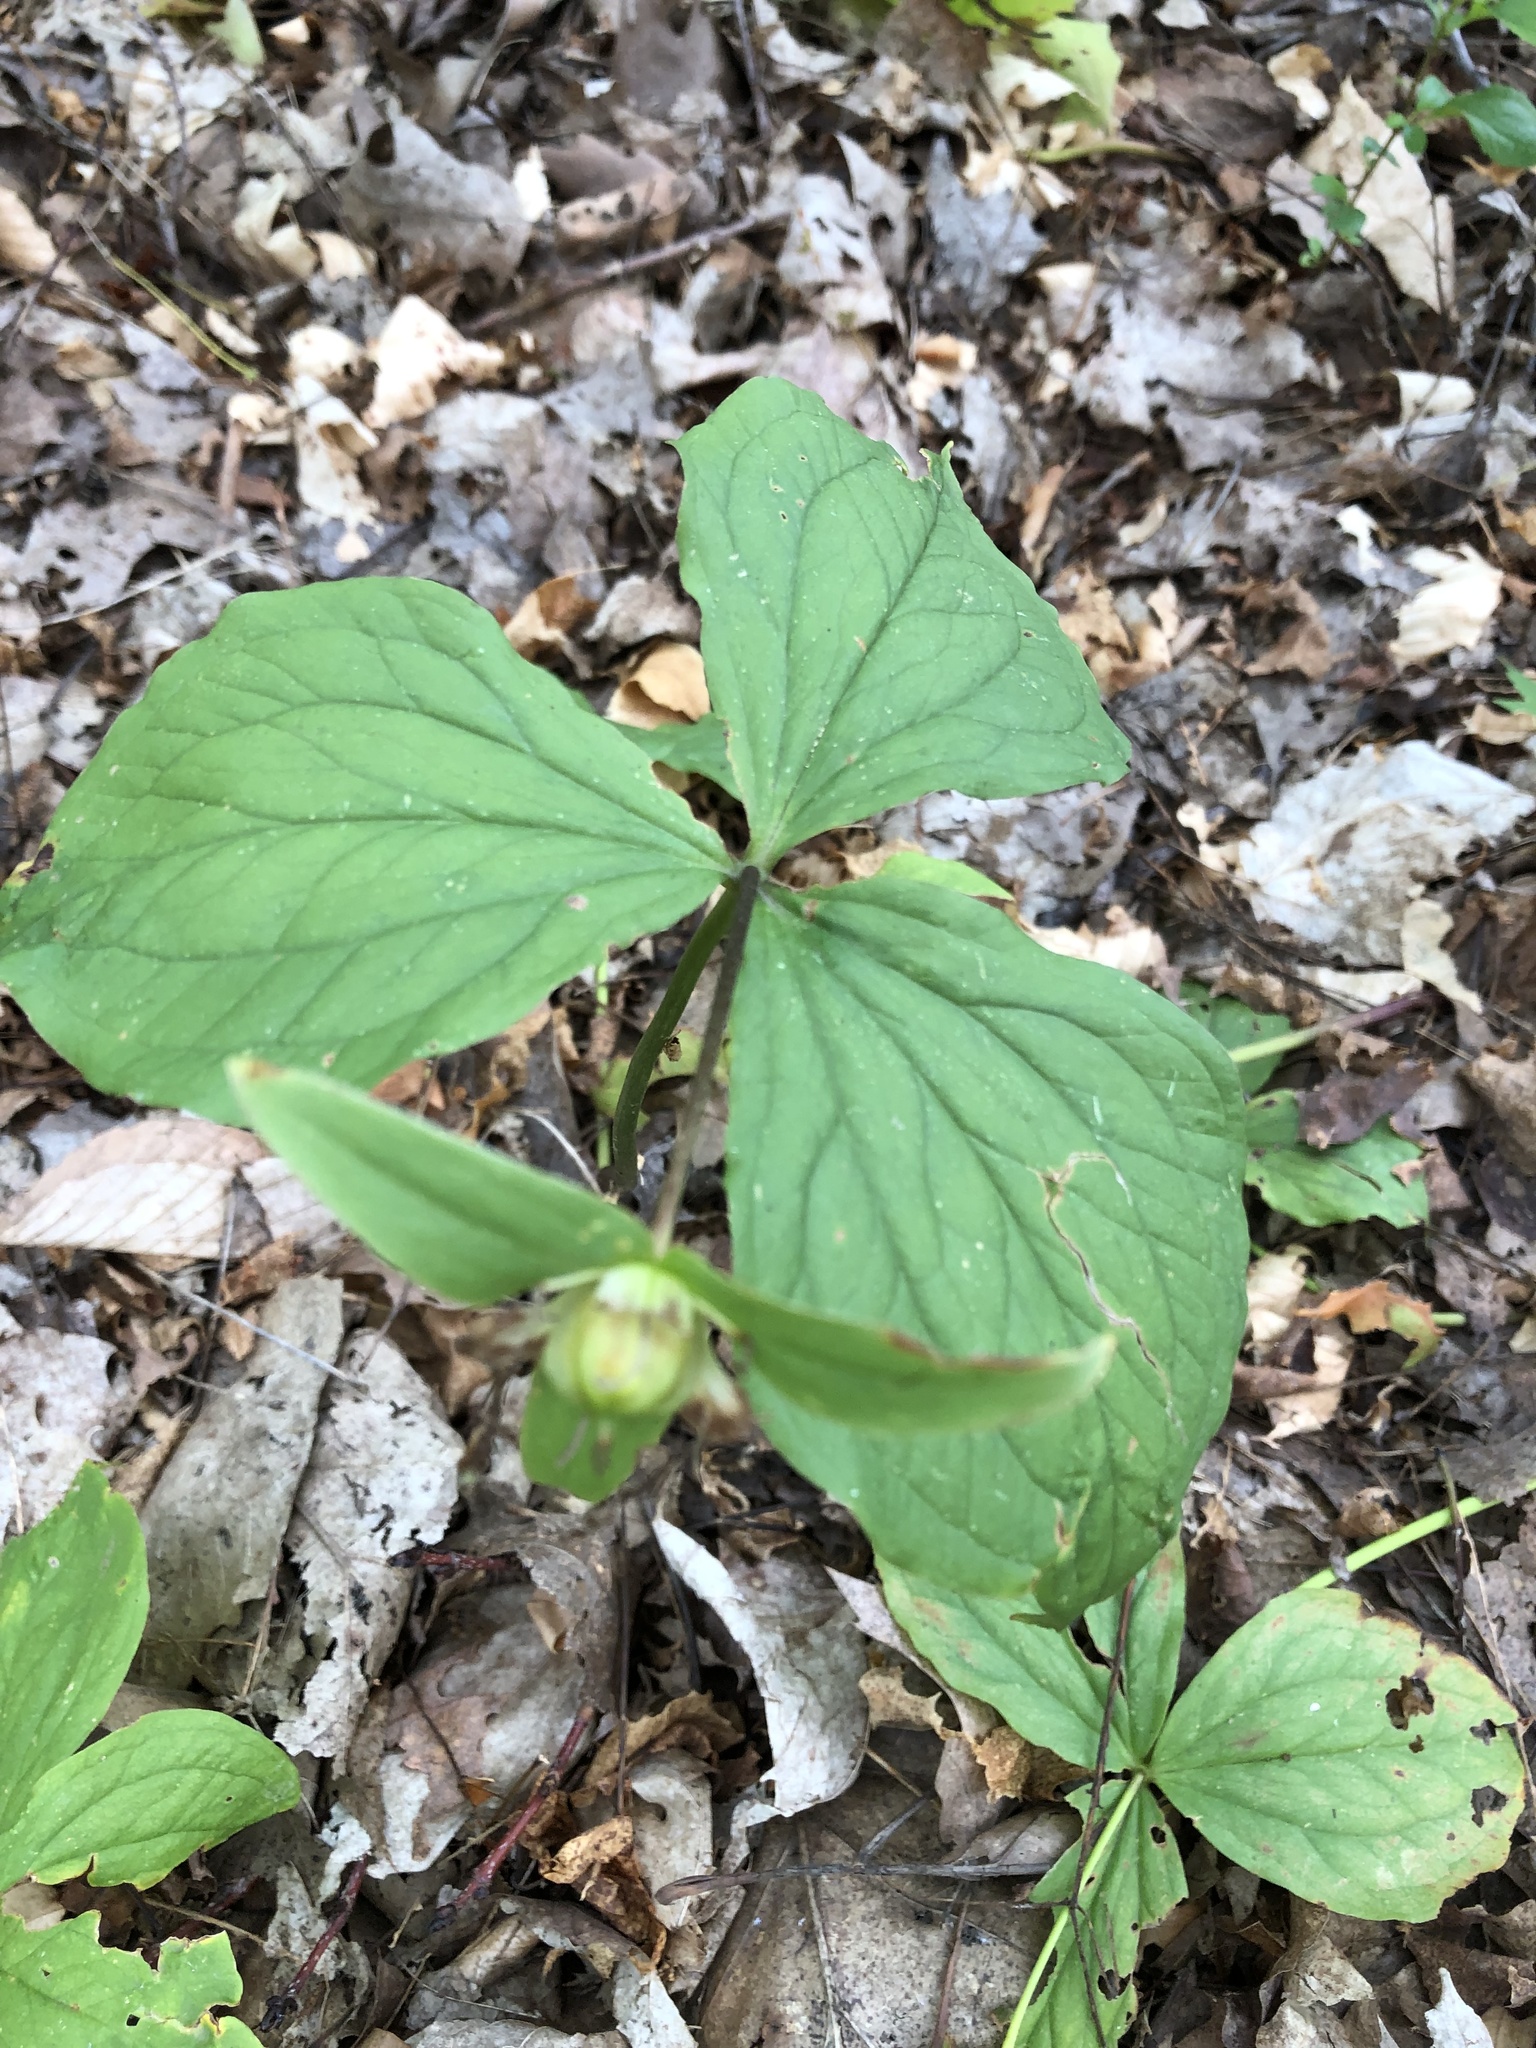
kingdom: Plantae
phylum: Tracheophyta
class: Liliopsida
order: Liliales
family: Melanthiaceae
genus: Trillium
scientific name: Trillium grandiflorum
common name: Great white trillium
